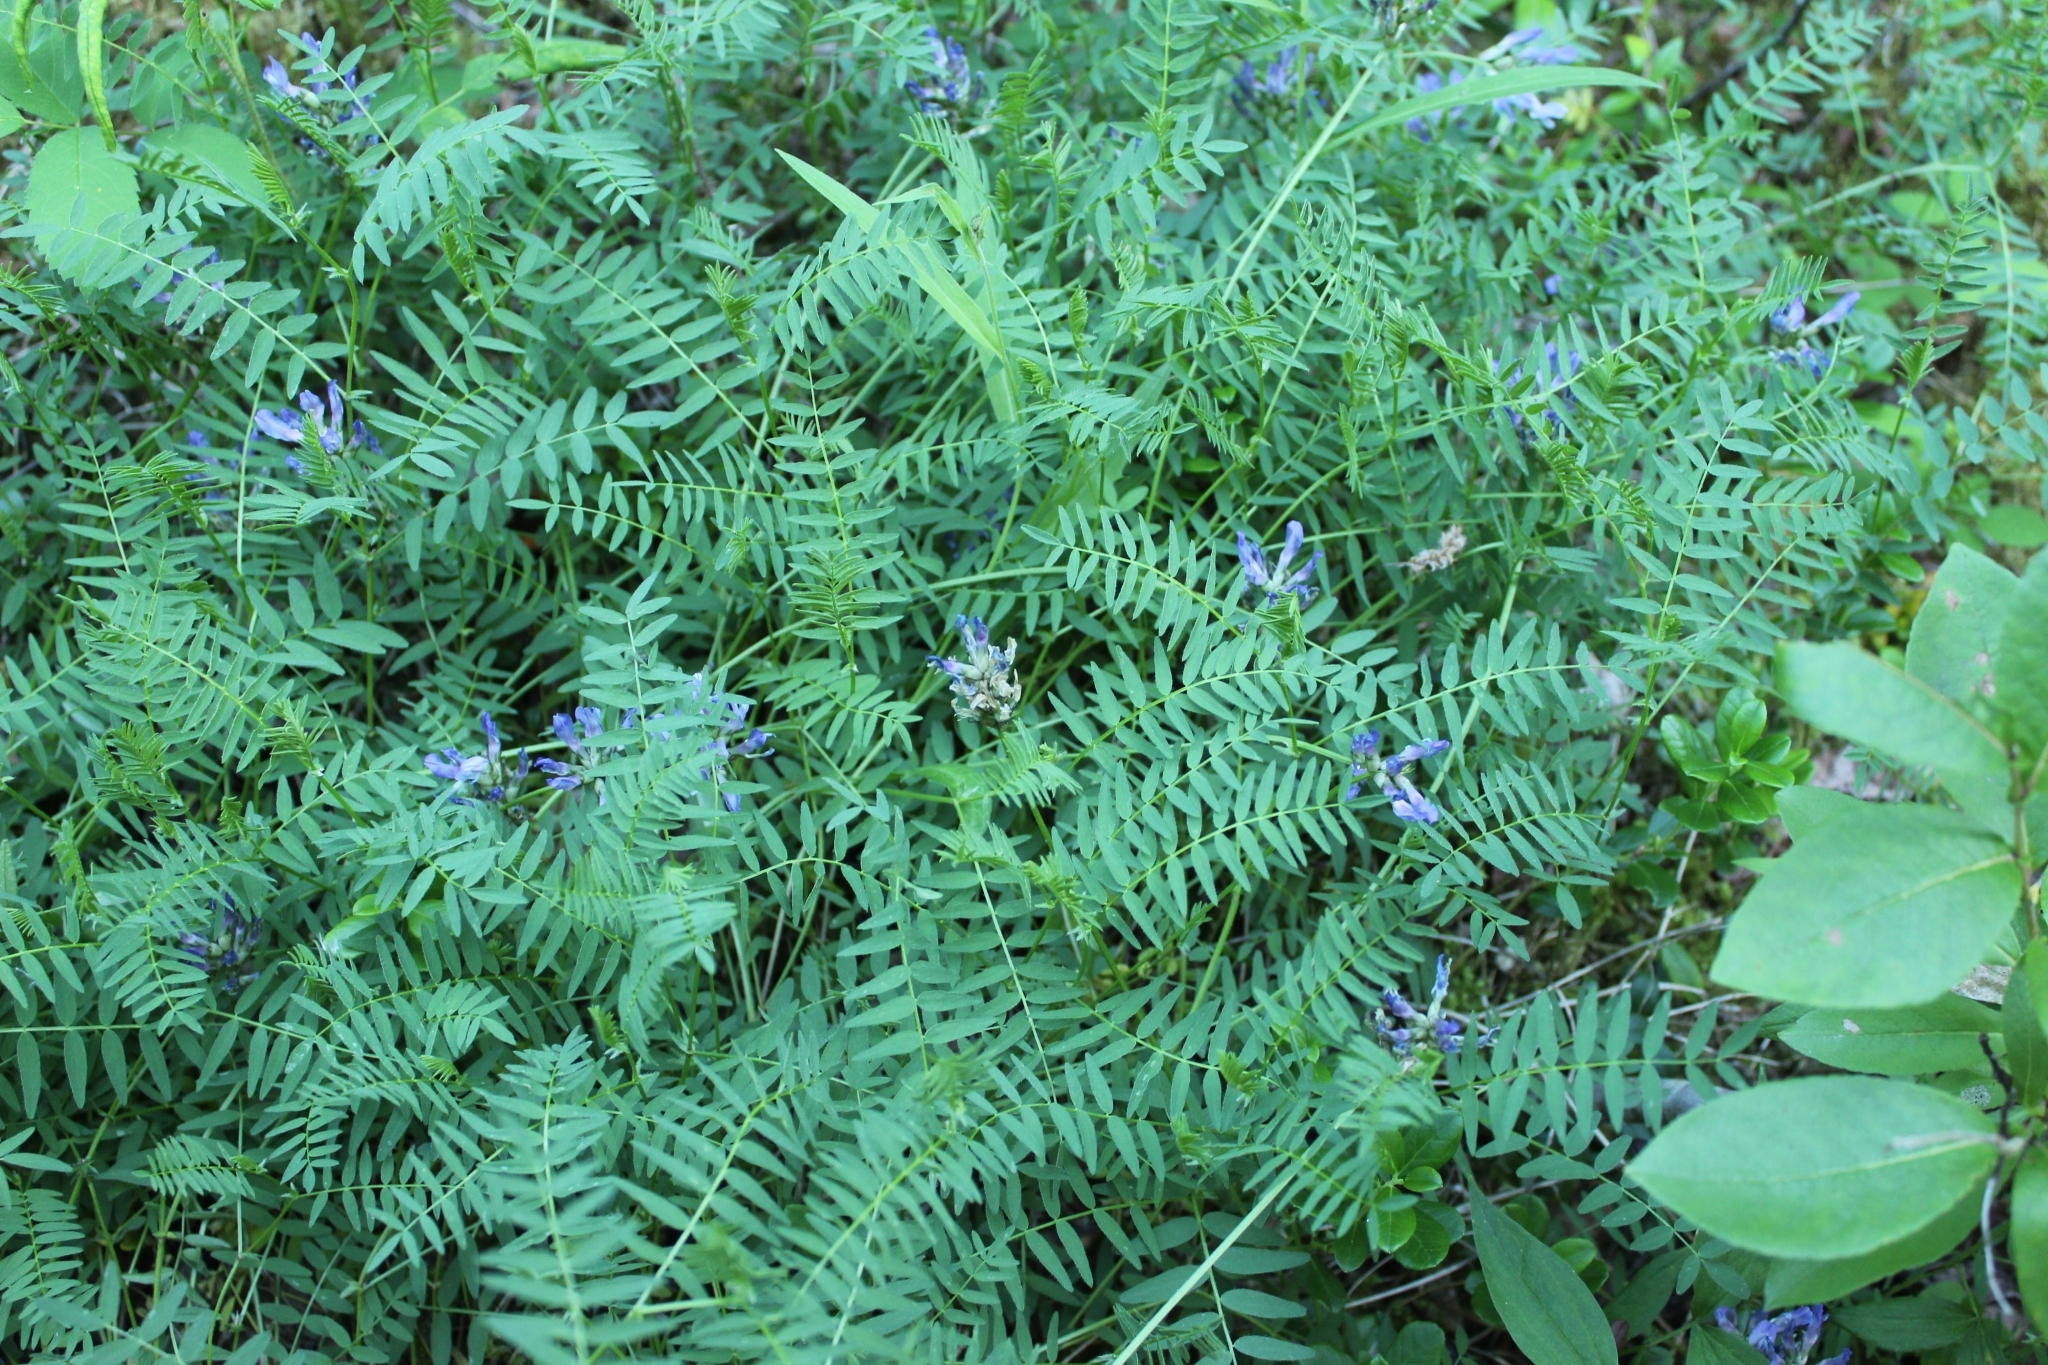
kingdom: Plantae
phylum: Tracheophyta
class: Magnoliopsida
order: Fabales
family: Fabaceae
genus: Astragalus
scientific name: Astragalus danicus
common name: Purple milk-vetch
